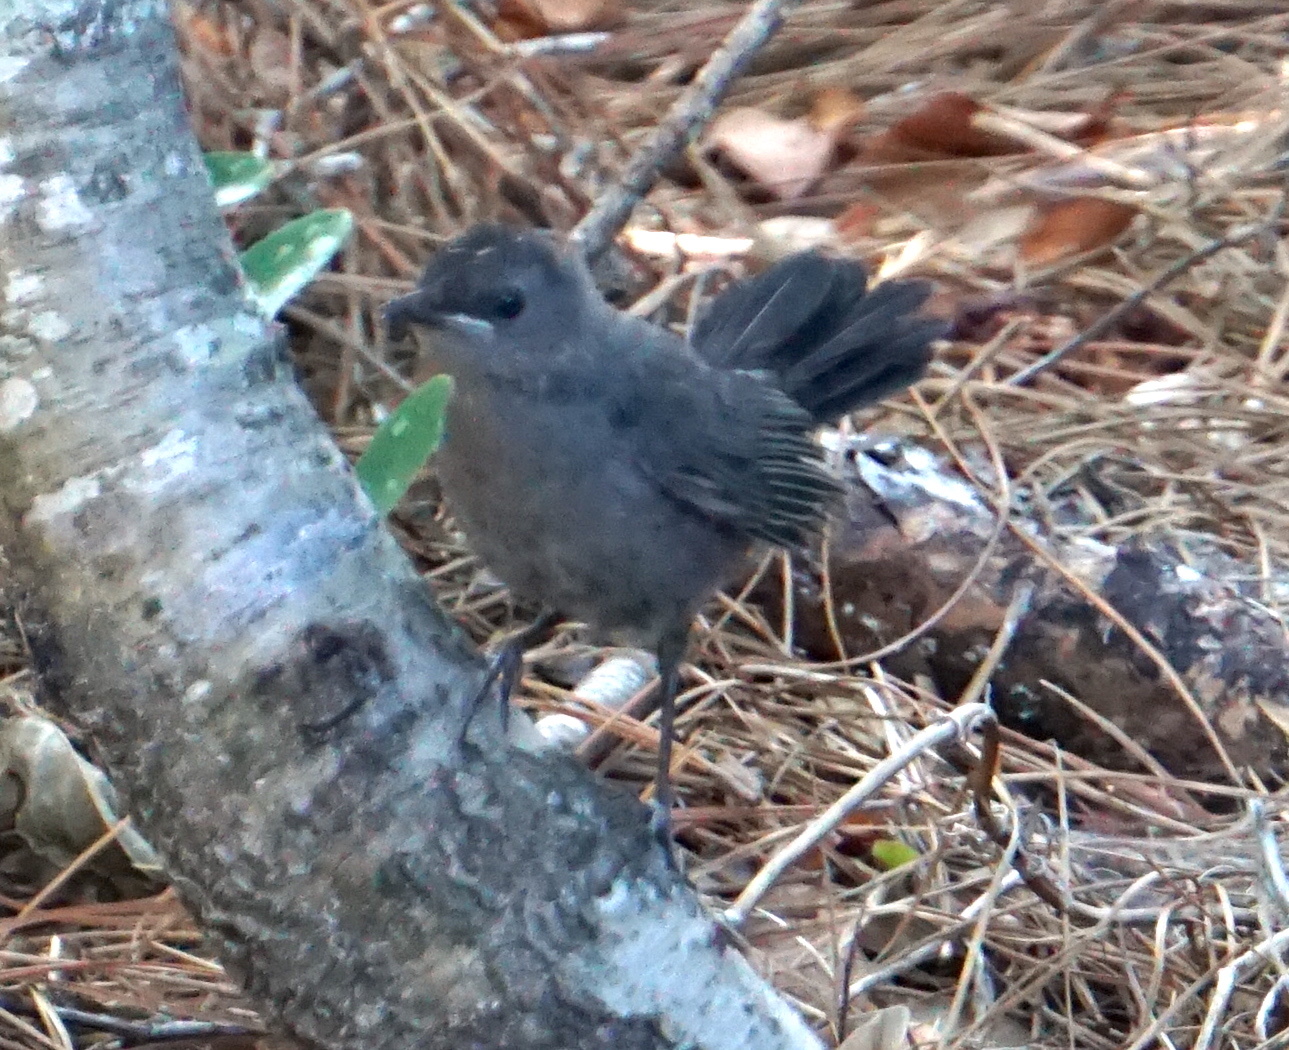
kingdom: Animalia
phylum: Chordata
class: Aves
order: Passeriformes
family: Mimidae
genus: Dumetella
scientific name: Dumetella carolinensis
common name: Gray catbird
